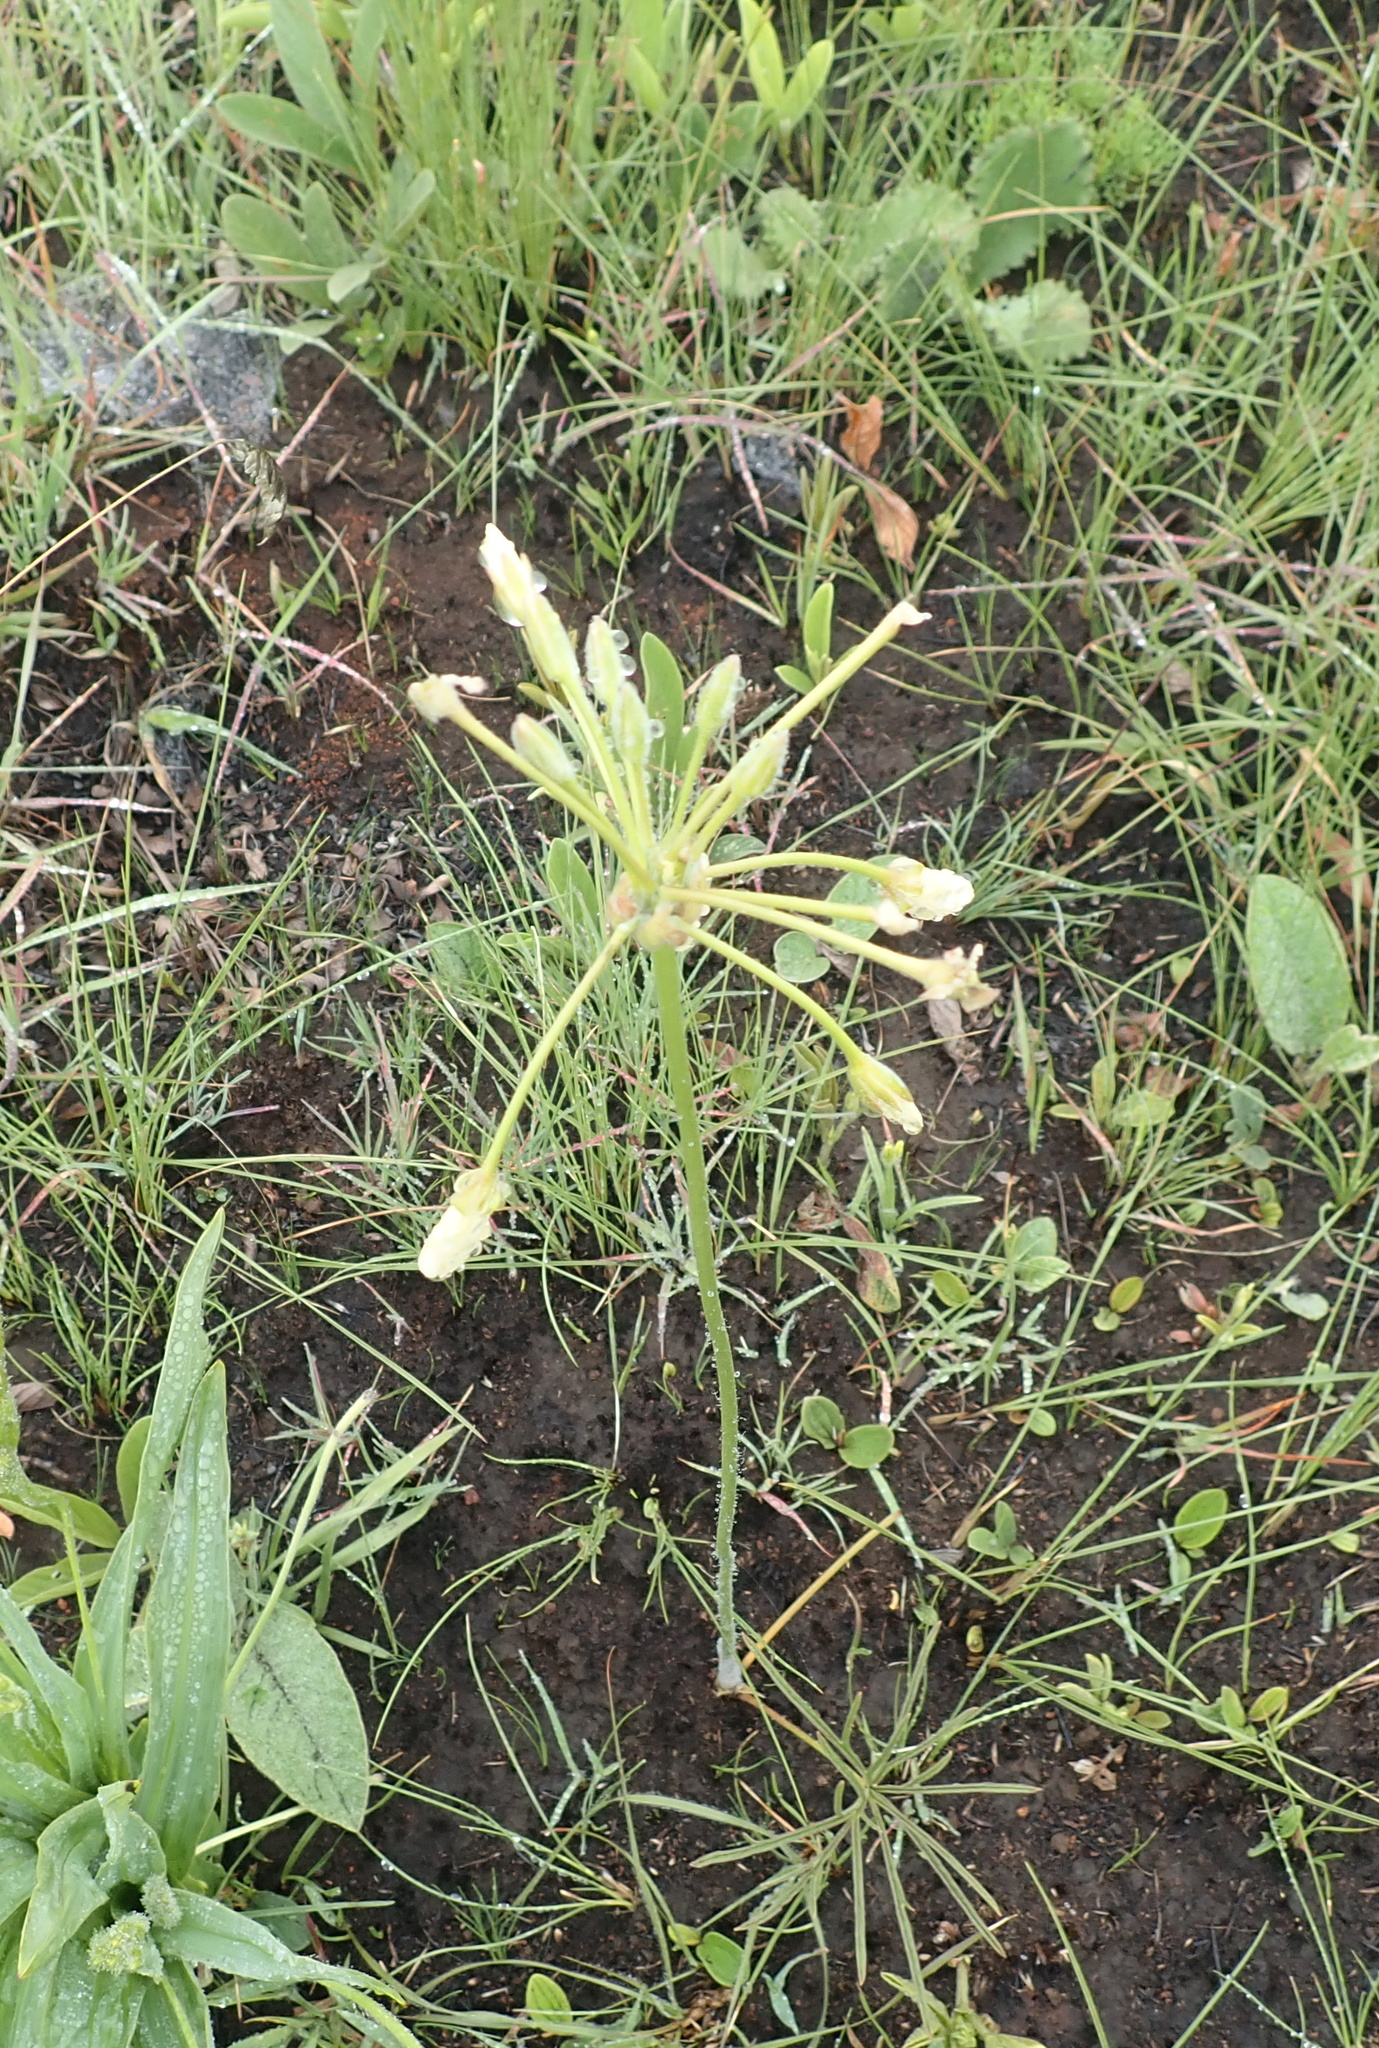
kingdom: Plantae
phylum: Tracheophyta
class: Magnoliopsida
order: Geraniales
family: Geraniaceae
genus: Pelargonium
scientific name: Pelargonium luridum
